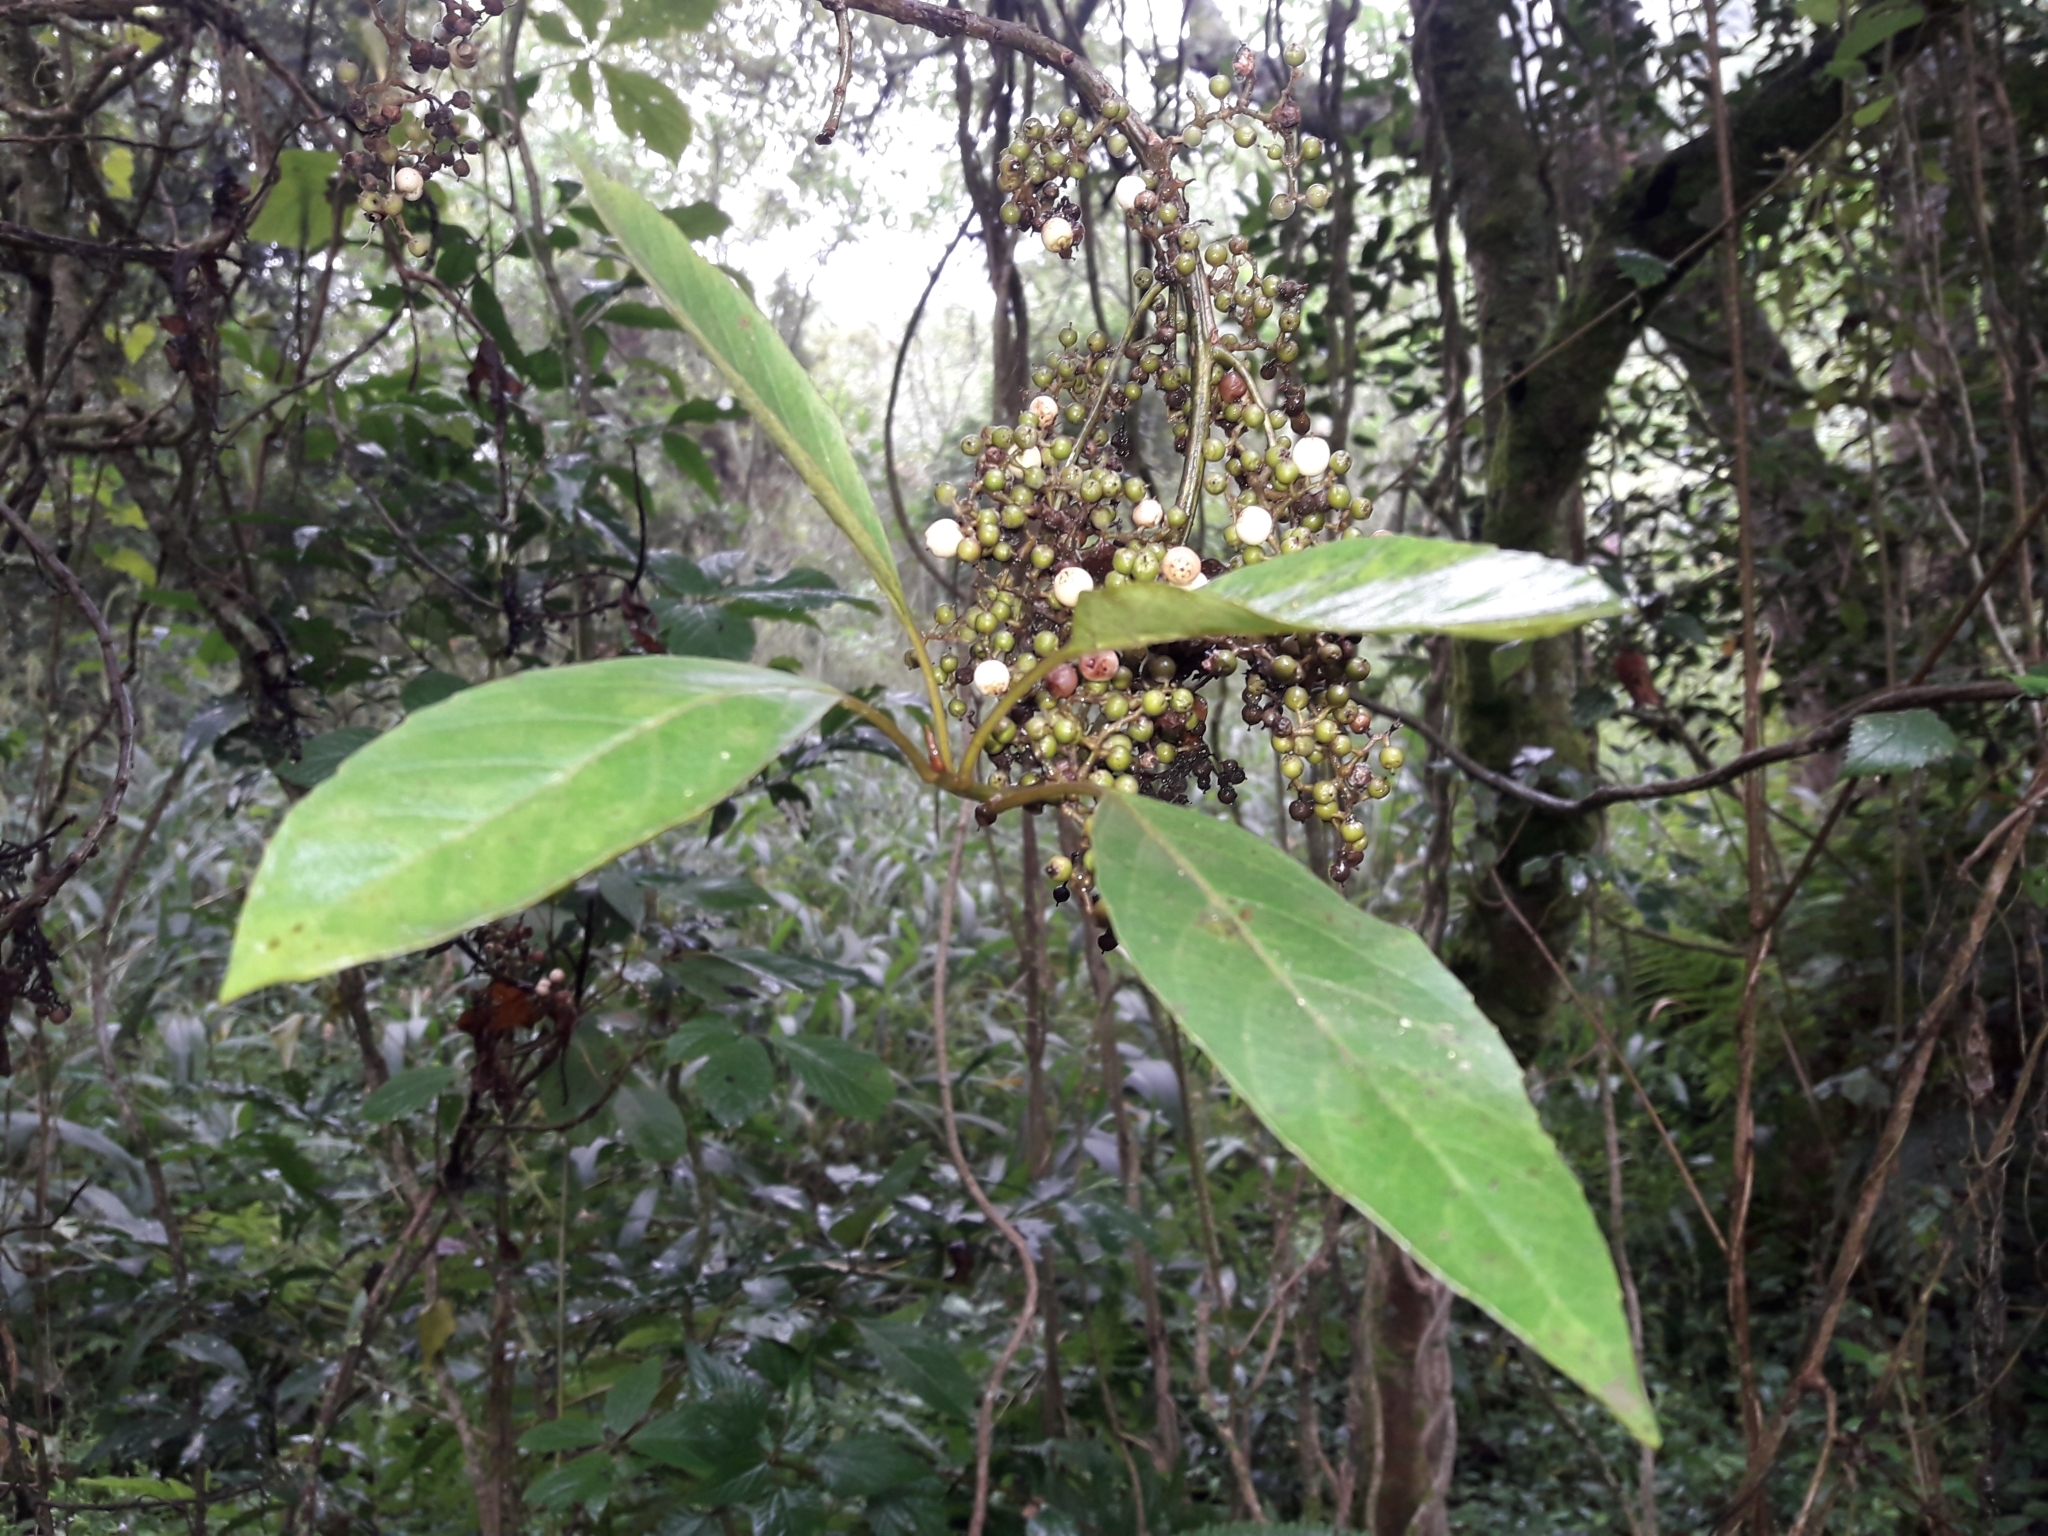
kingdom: Plantae
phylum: Tracheophyta
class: Magnoliopsida
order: Ericales
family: Primulaceae
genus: Maesa
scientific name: Maesa lanceolata
